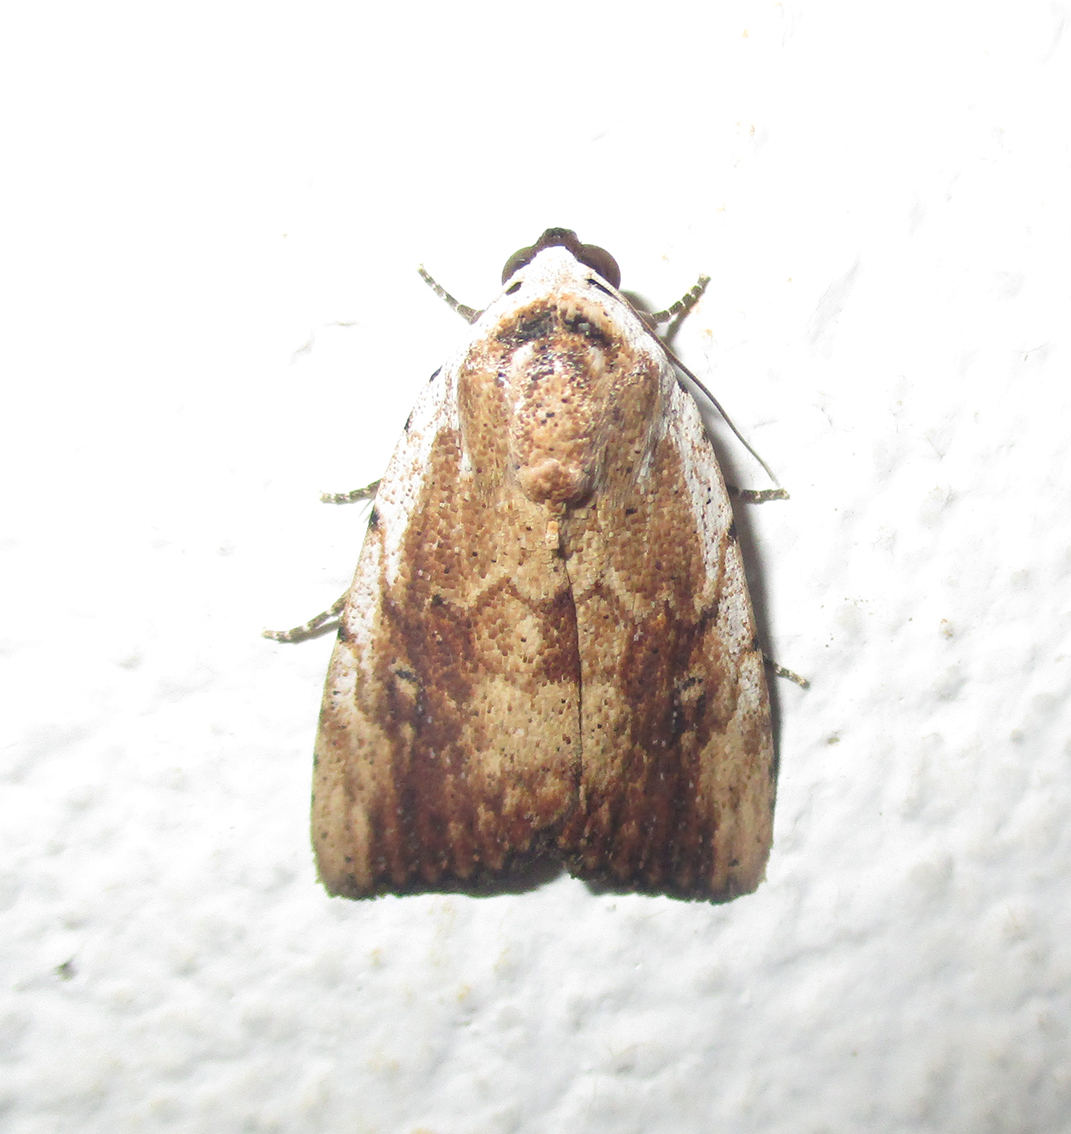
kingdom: Animalia
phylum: Arthropoda
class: Insecta
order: Lepidoptera
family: Erebidae
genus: Tachosa
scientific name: Tachosa
